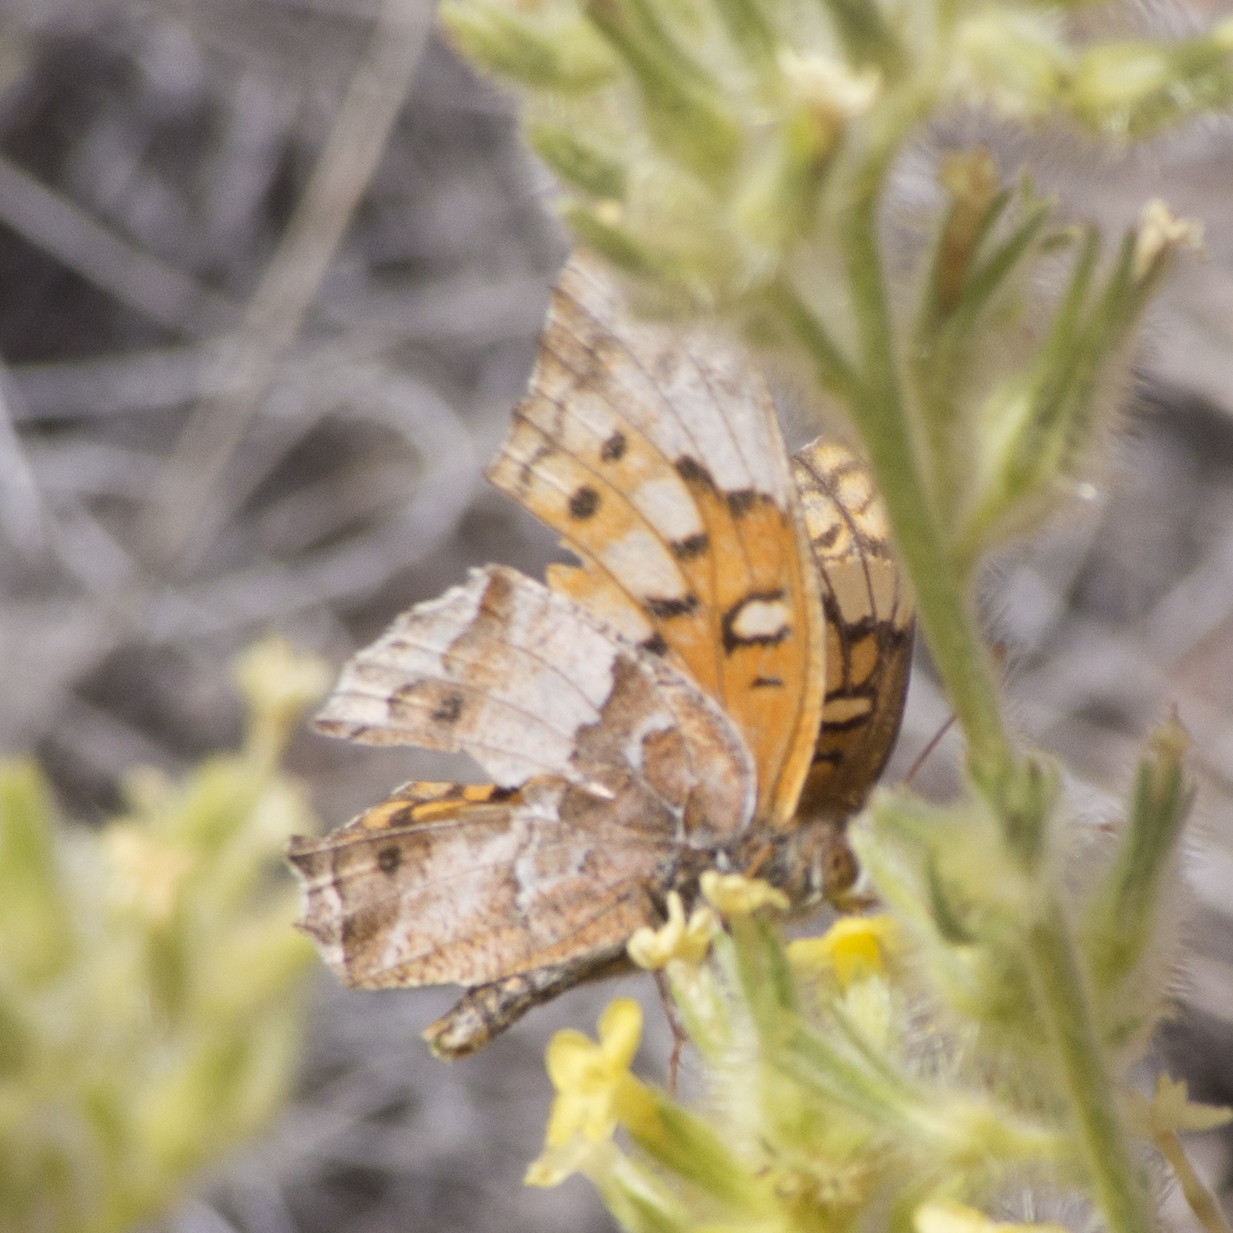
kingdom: Animalia
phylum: Arthropoda
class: Insecta
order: Lepidoptera
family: Nymphalidae
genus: Euptoieta
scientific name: Euptoieta claudia
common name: Variegated fritillary
